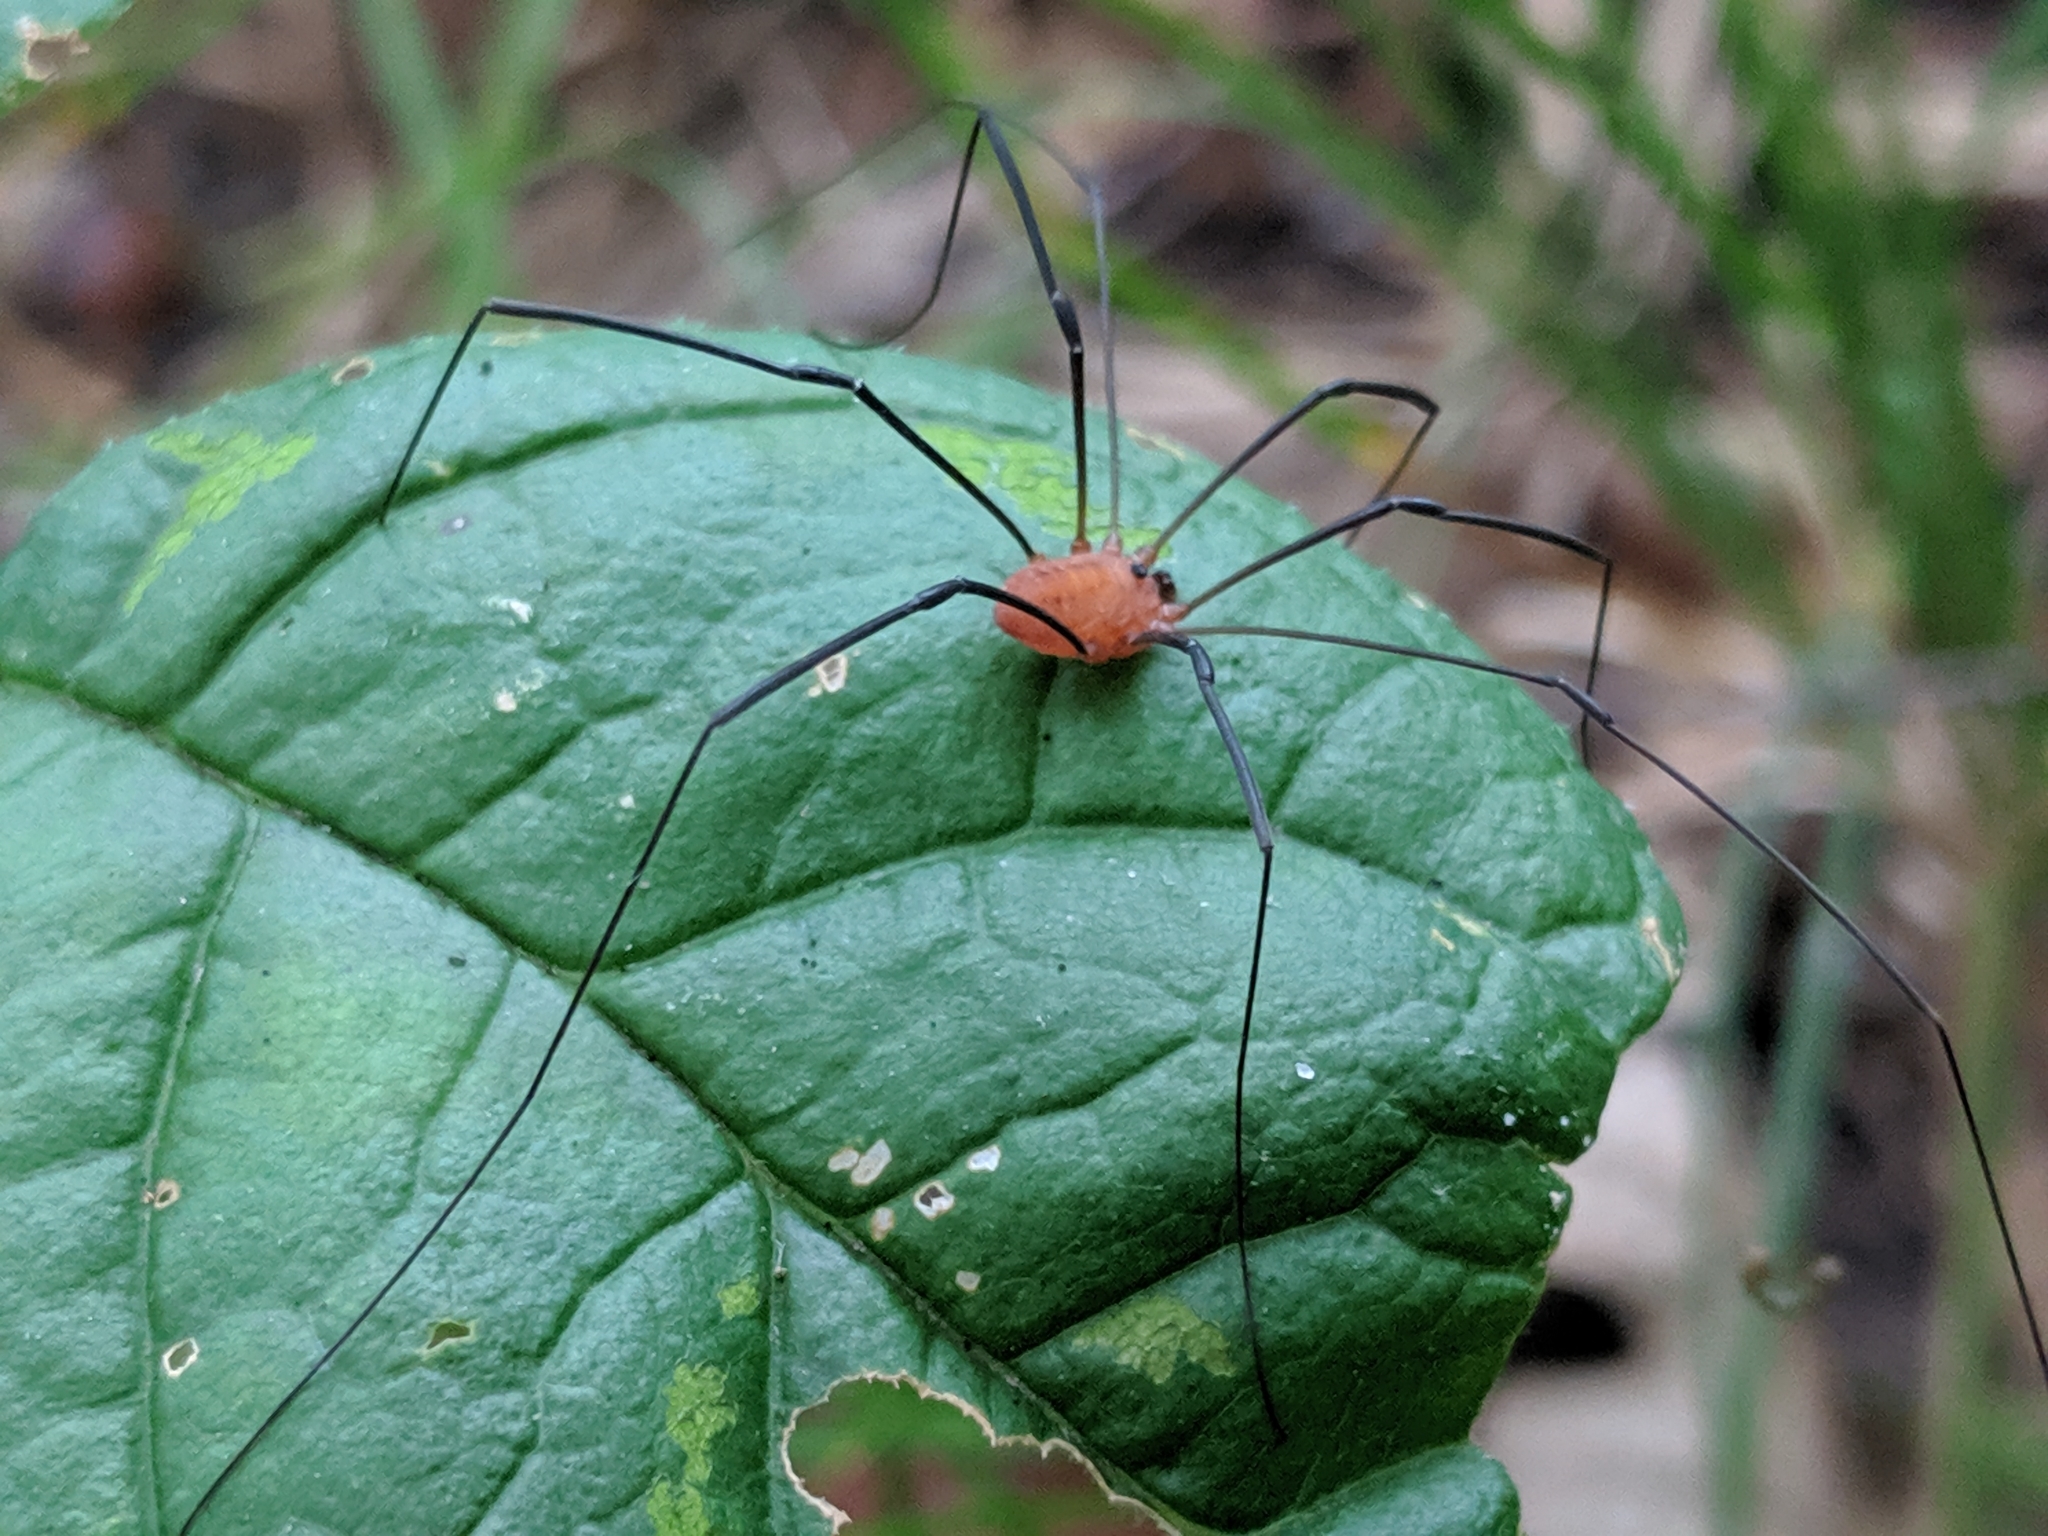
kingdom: Animalia
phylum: Arthropoda
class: Arachnida
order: Opiliones
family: Sclerosomatidae
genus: Leiobunum
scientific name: Leiobunum vittatum
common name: Eastern harvestman
